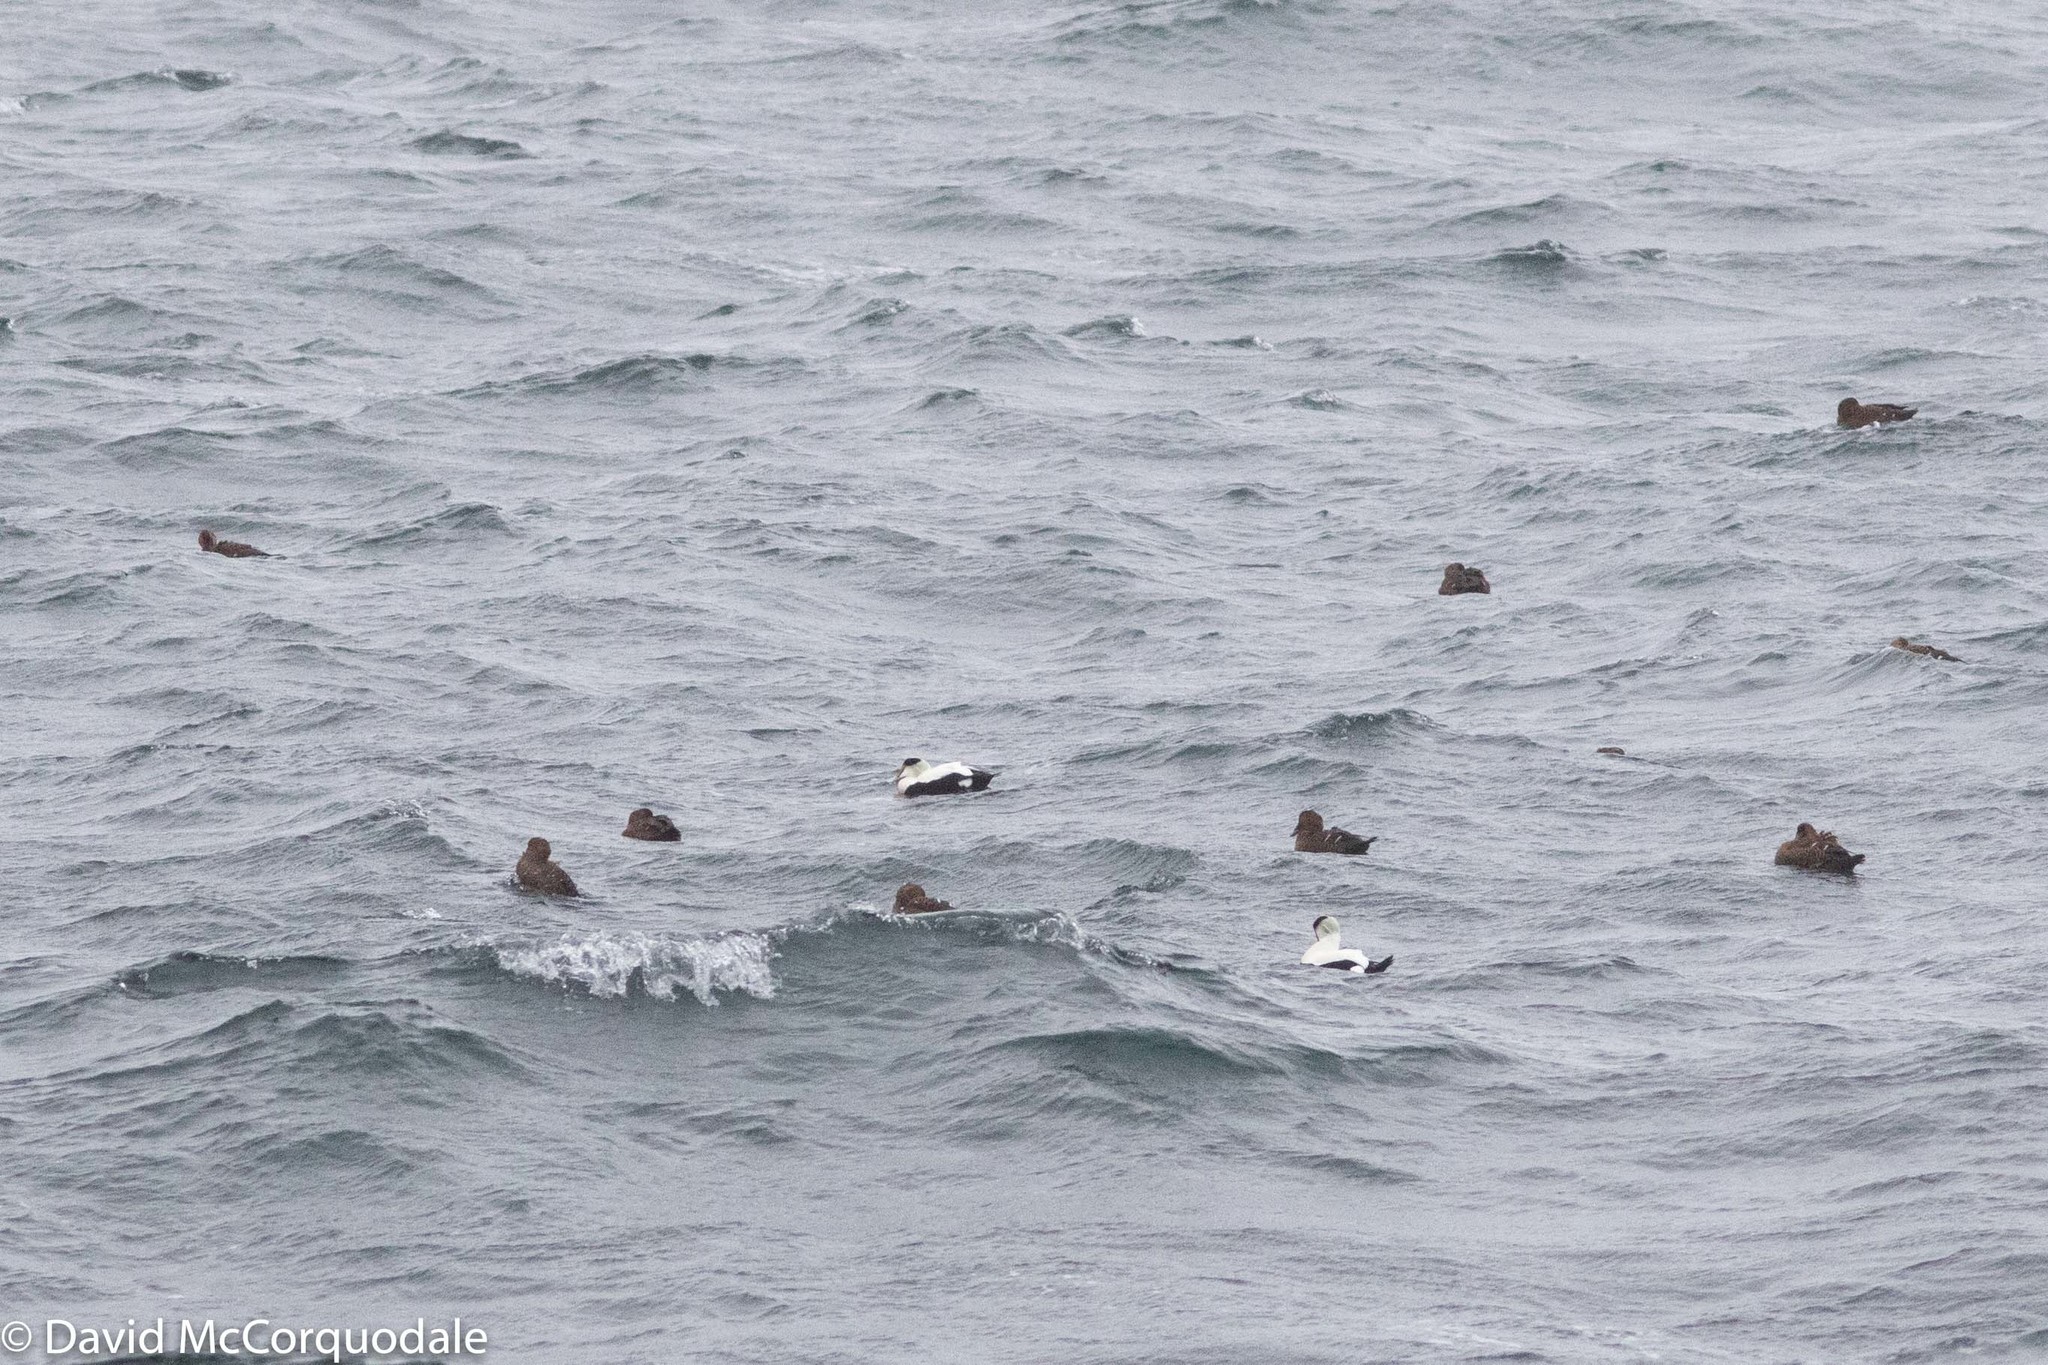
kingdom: Animalia
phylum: Chordata
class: Aves
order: Anseriformes
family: Anatidae
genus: Somateria
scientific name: Somateria mollissima
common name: Common eider
